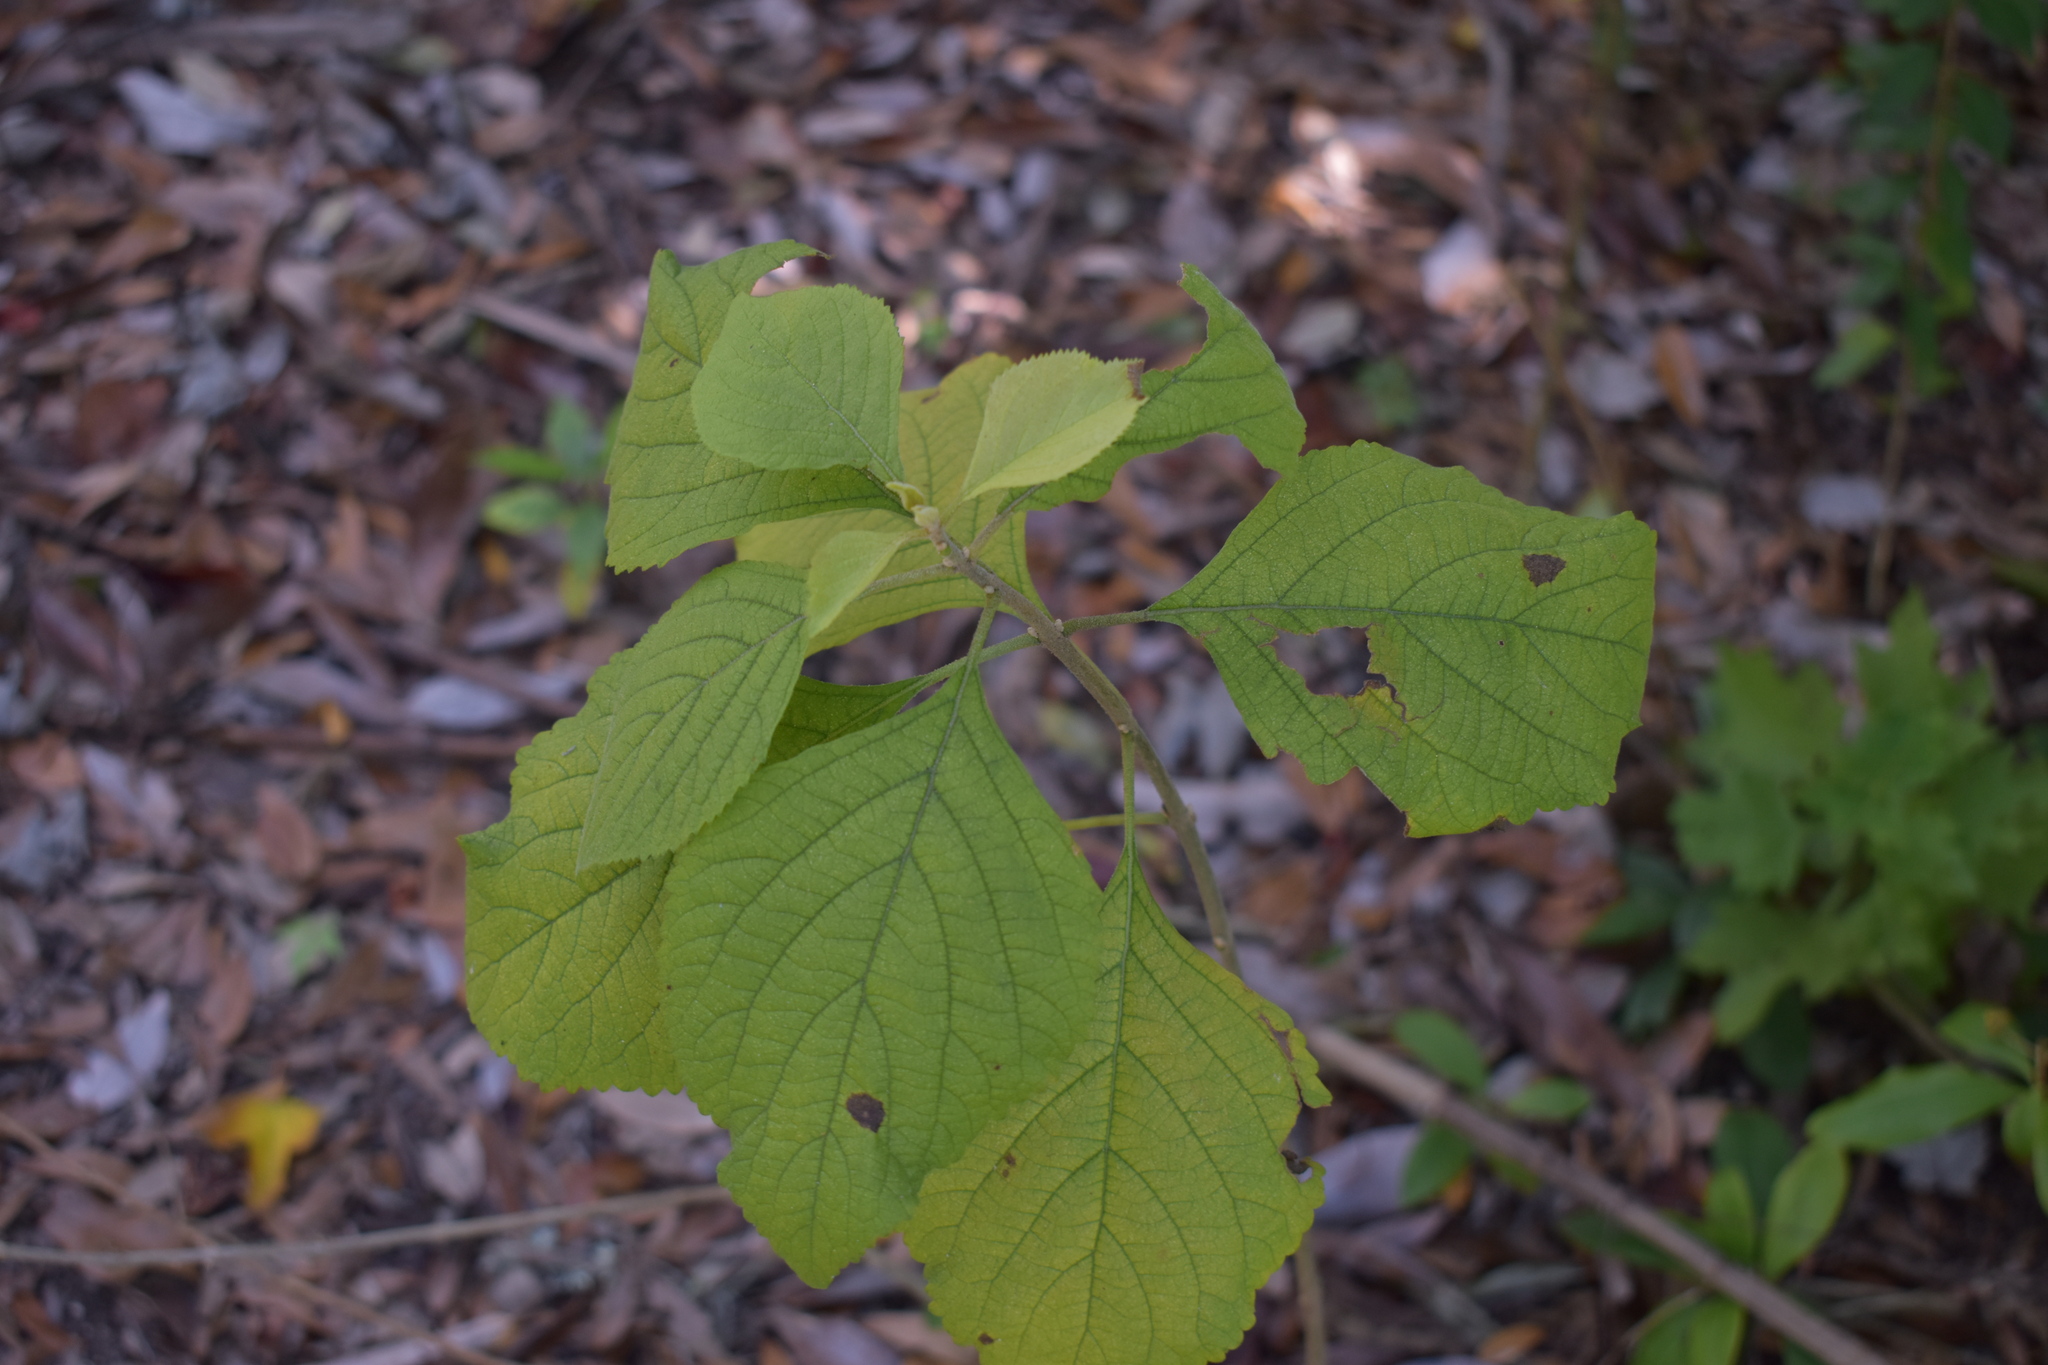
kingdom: Plantae
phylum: Tracheophyta
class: Magnoliopsida
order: Lamiales
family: Lamiaceae
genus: Callicarpa
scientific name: Callicarpa americana
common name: American beautyberry
